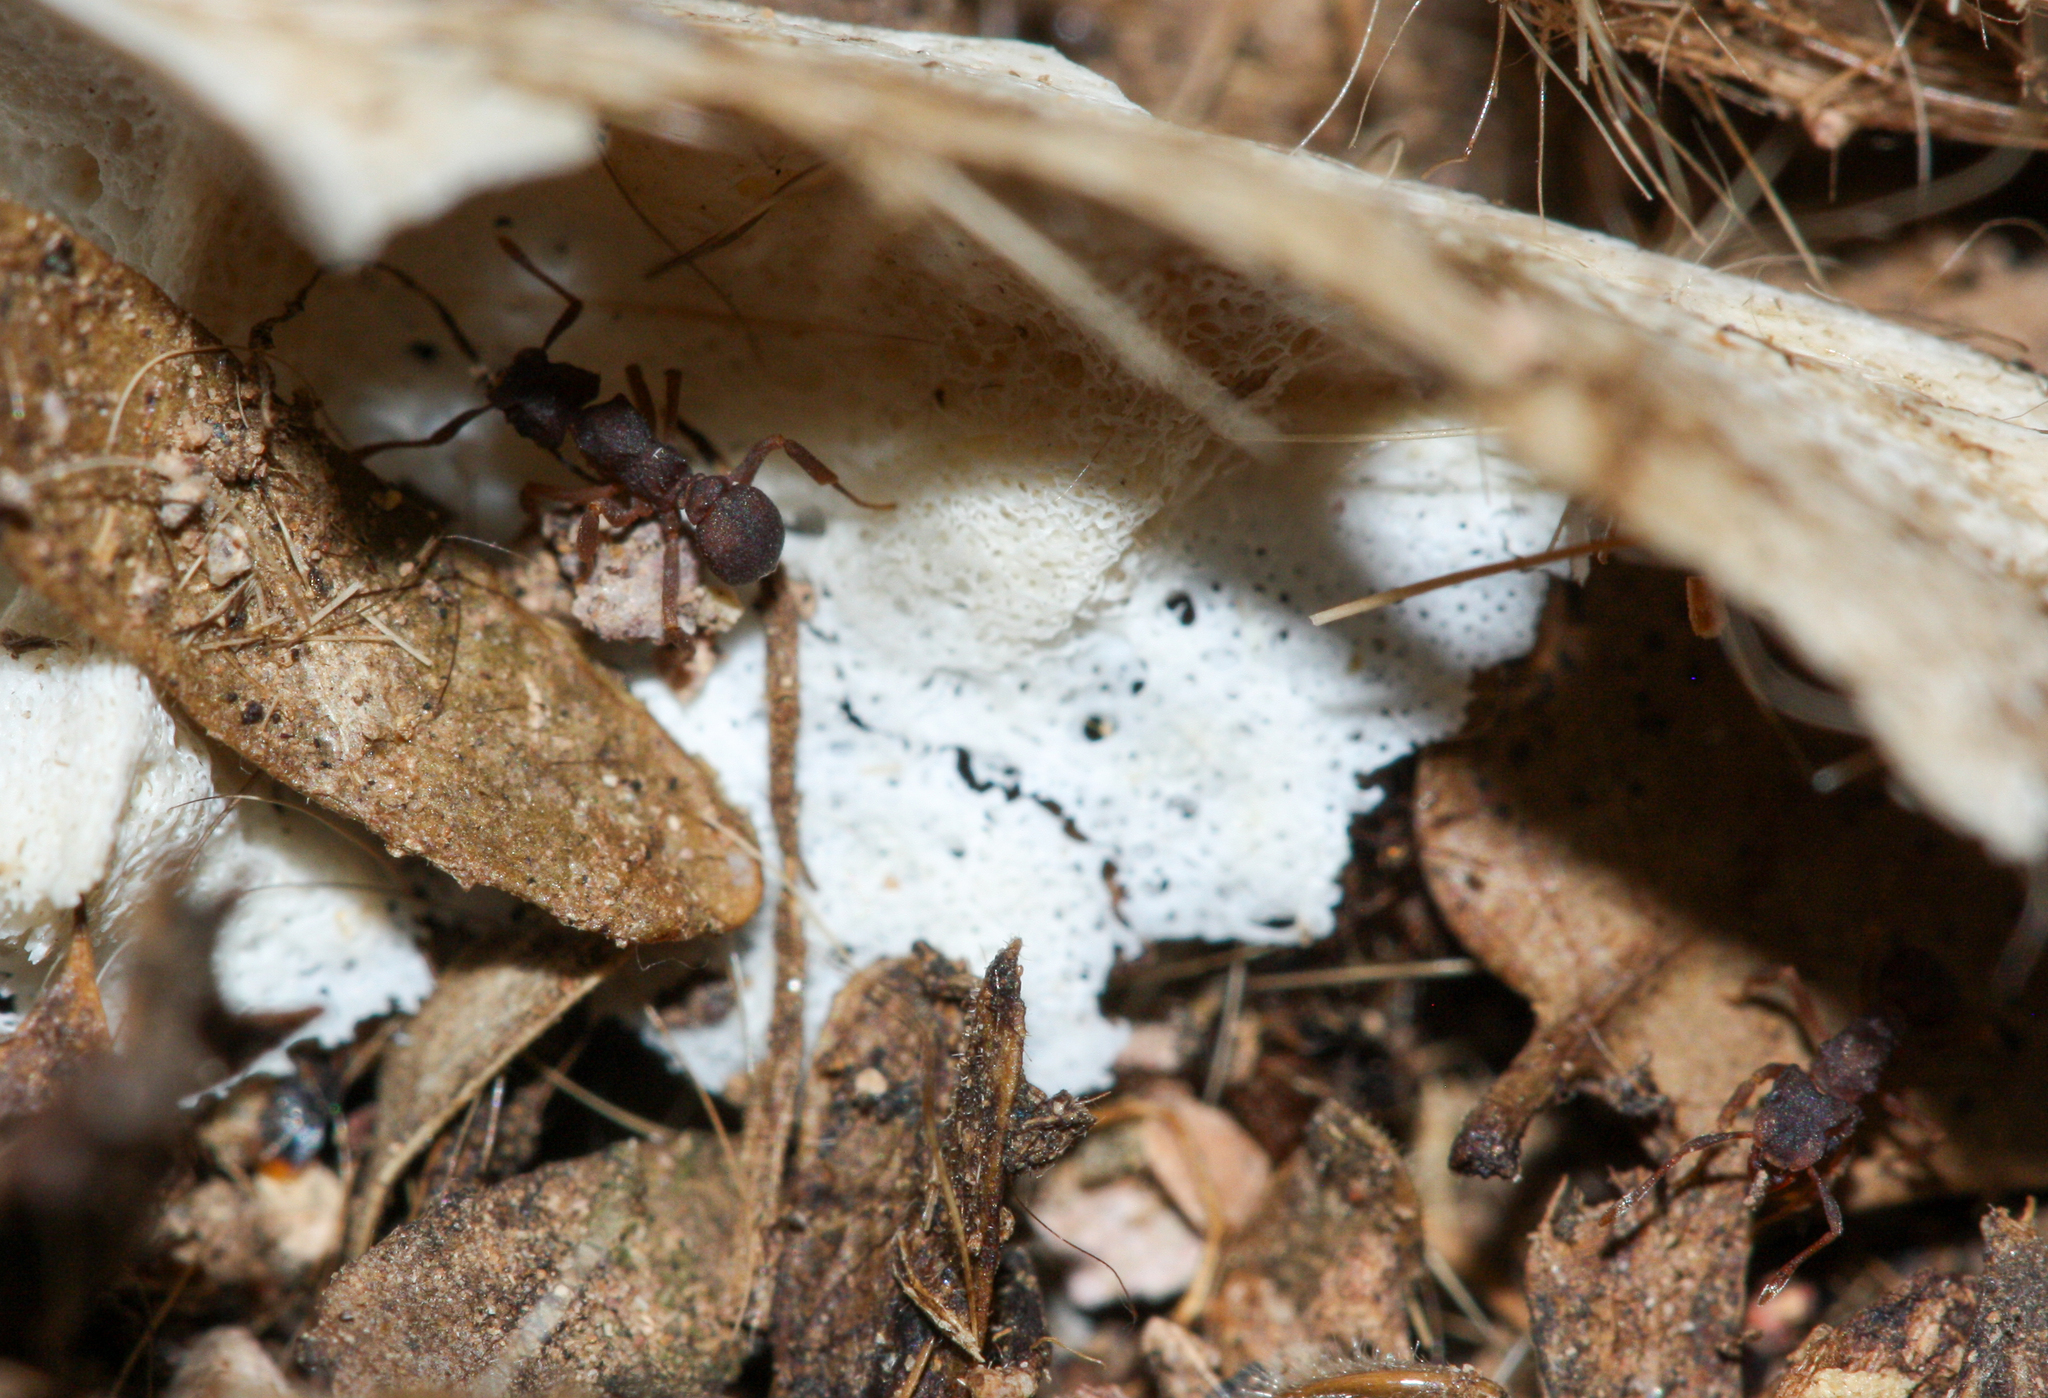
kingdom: Animalia
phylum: Arthropoda
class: Insecta
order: Hymenoptera
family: Formicidae
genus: Cyphomyrmex
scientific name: Cyphomyrmex flavidus
